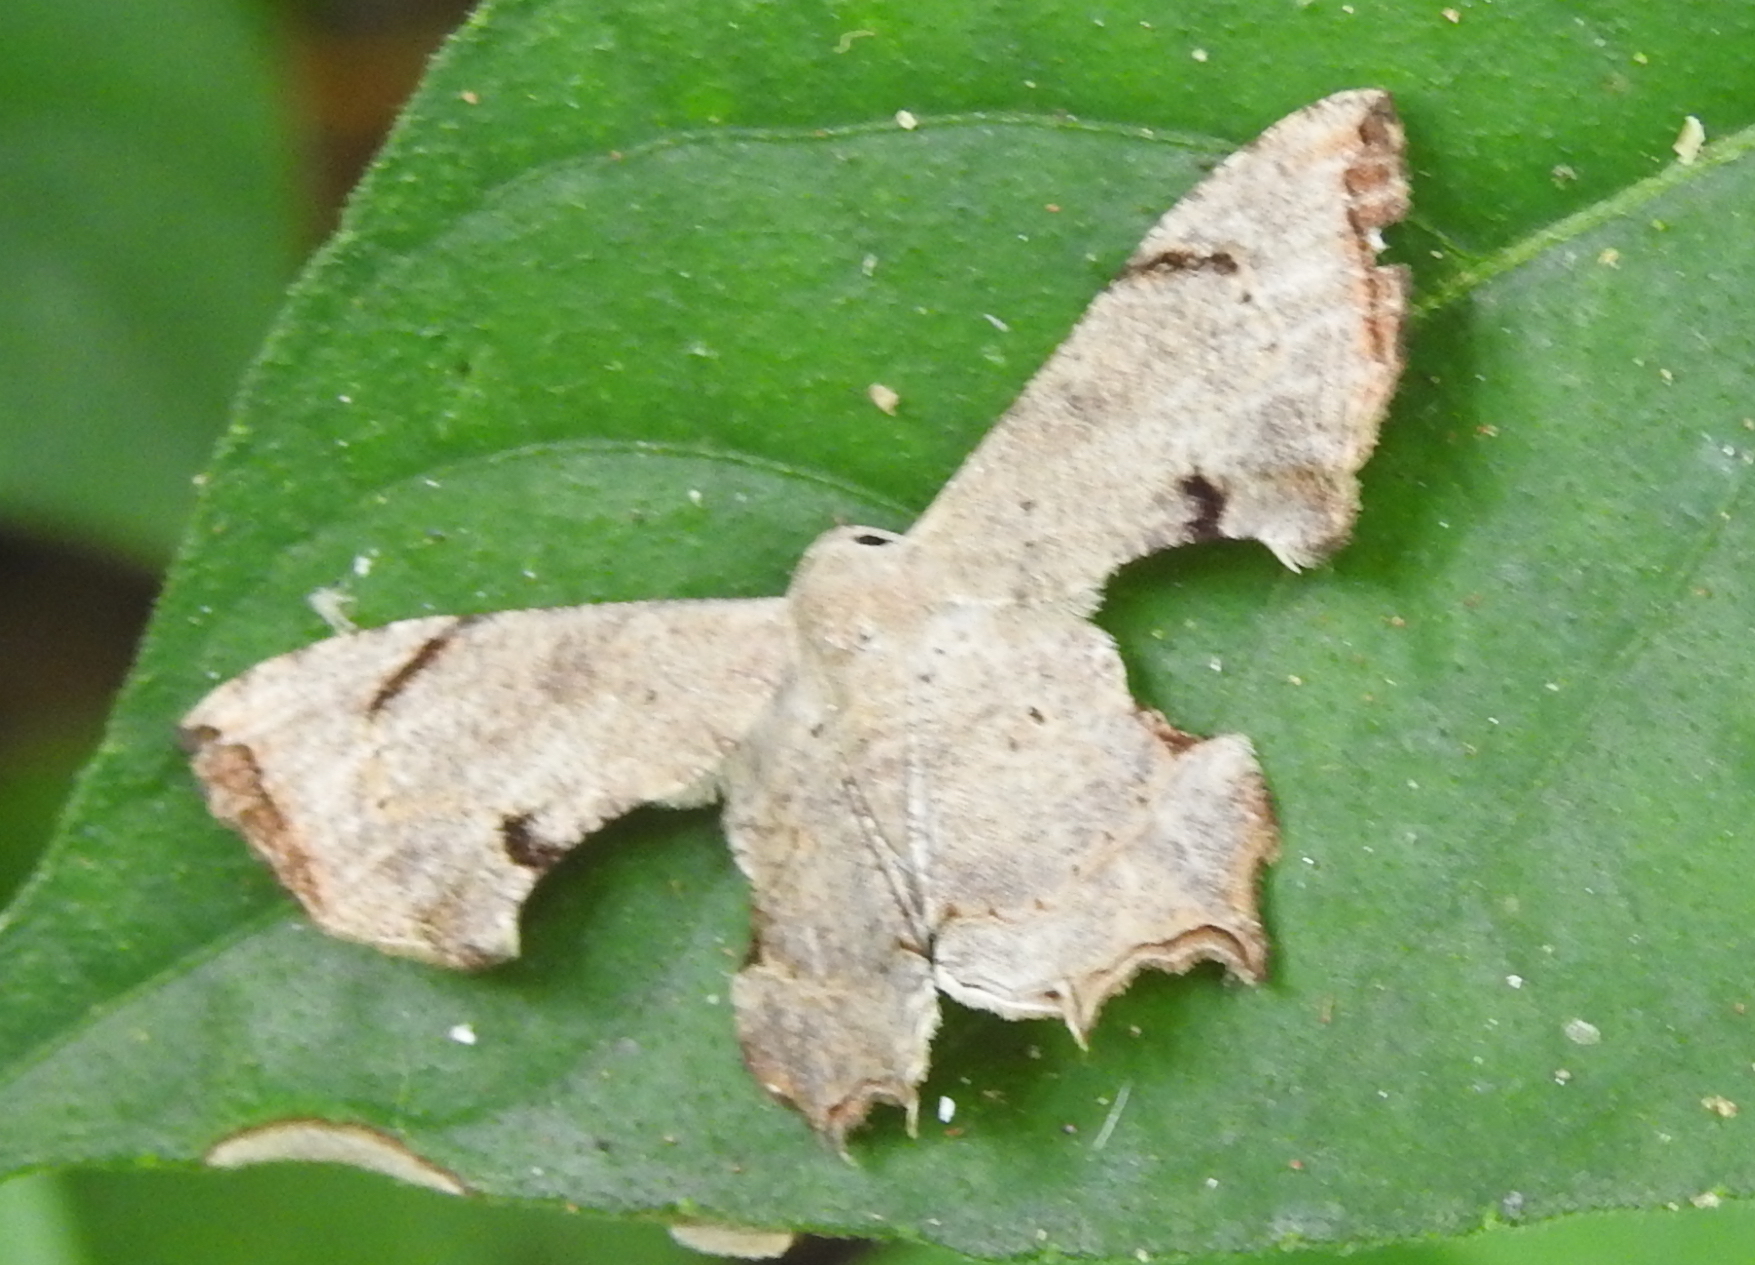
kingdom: Animalia
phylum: Arthropoda
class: Insecta
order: Lepidoptera
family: Uraniidae
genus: Dysaethria
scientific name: Dysaethria quadricaudata
